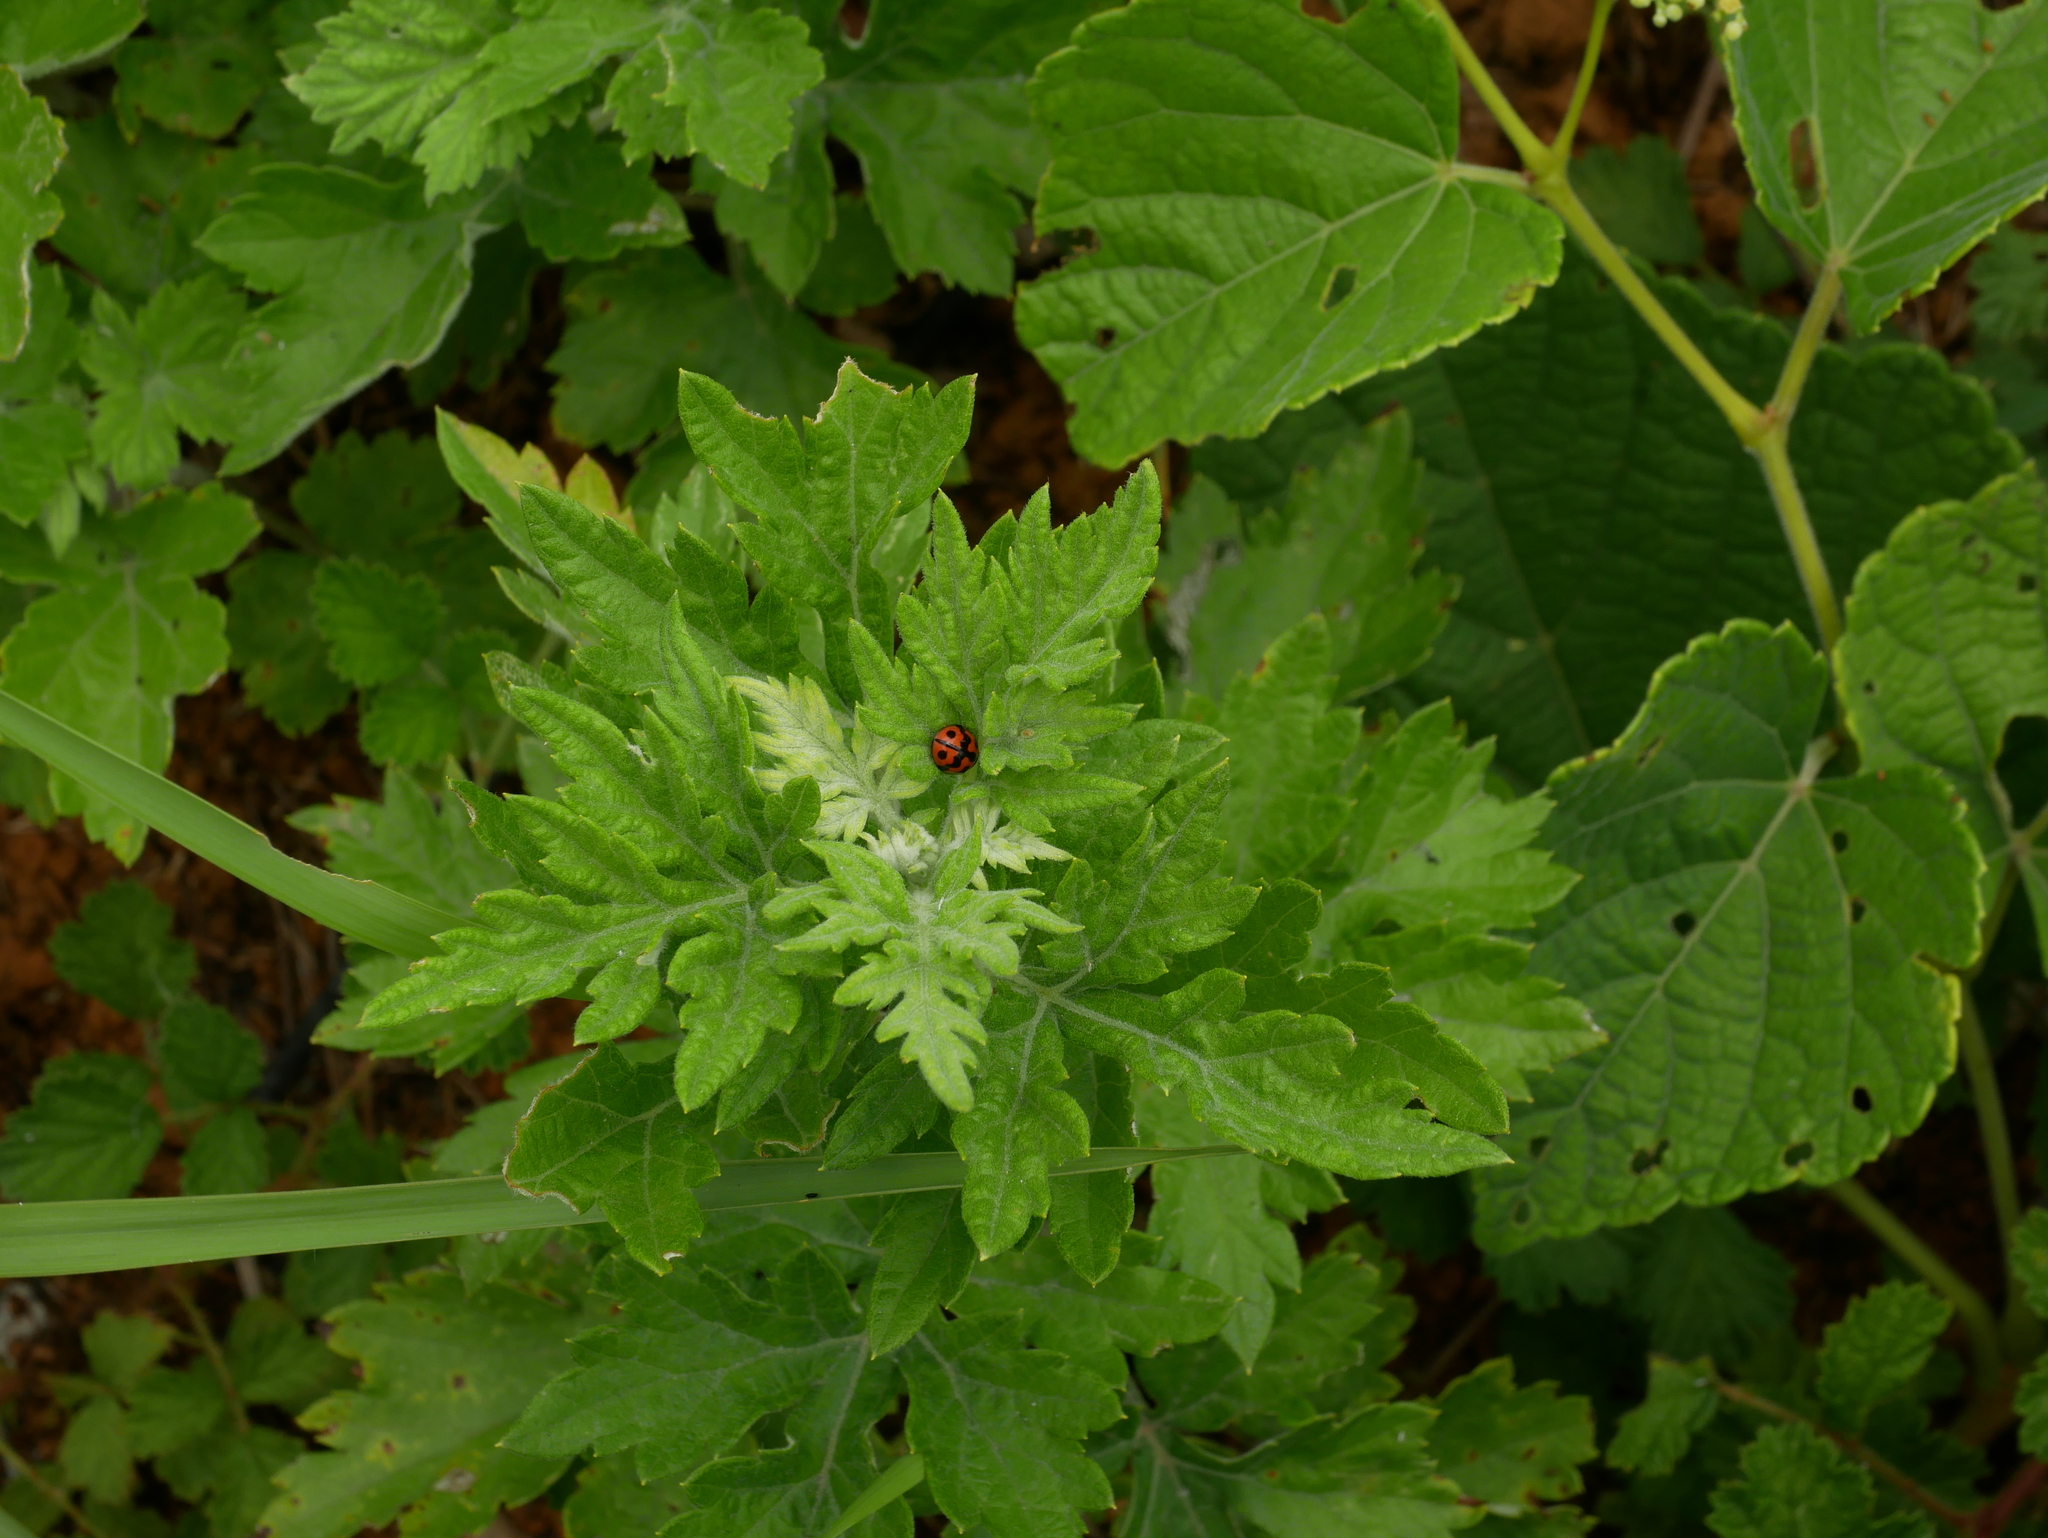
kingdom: Animalia
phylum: Arthropoda
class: Insecta
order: Coleoptera
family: Coccinellidae
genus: Cheilomenes
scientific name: Cheilomenes sexmaculata
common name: Ladybird beetle
